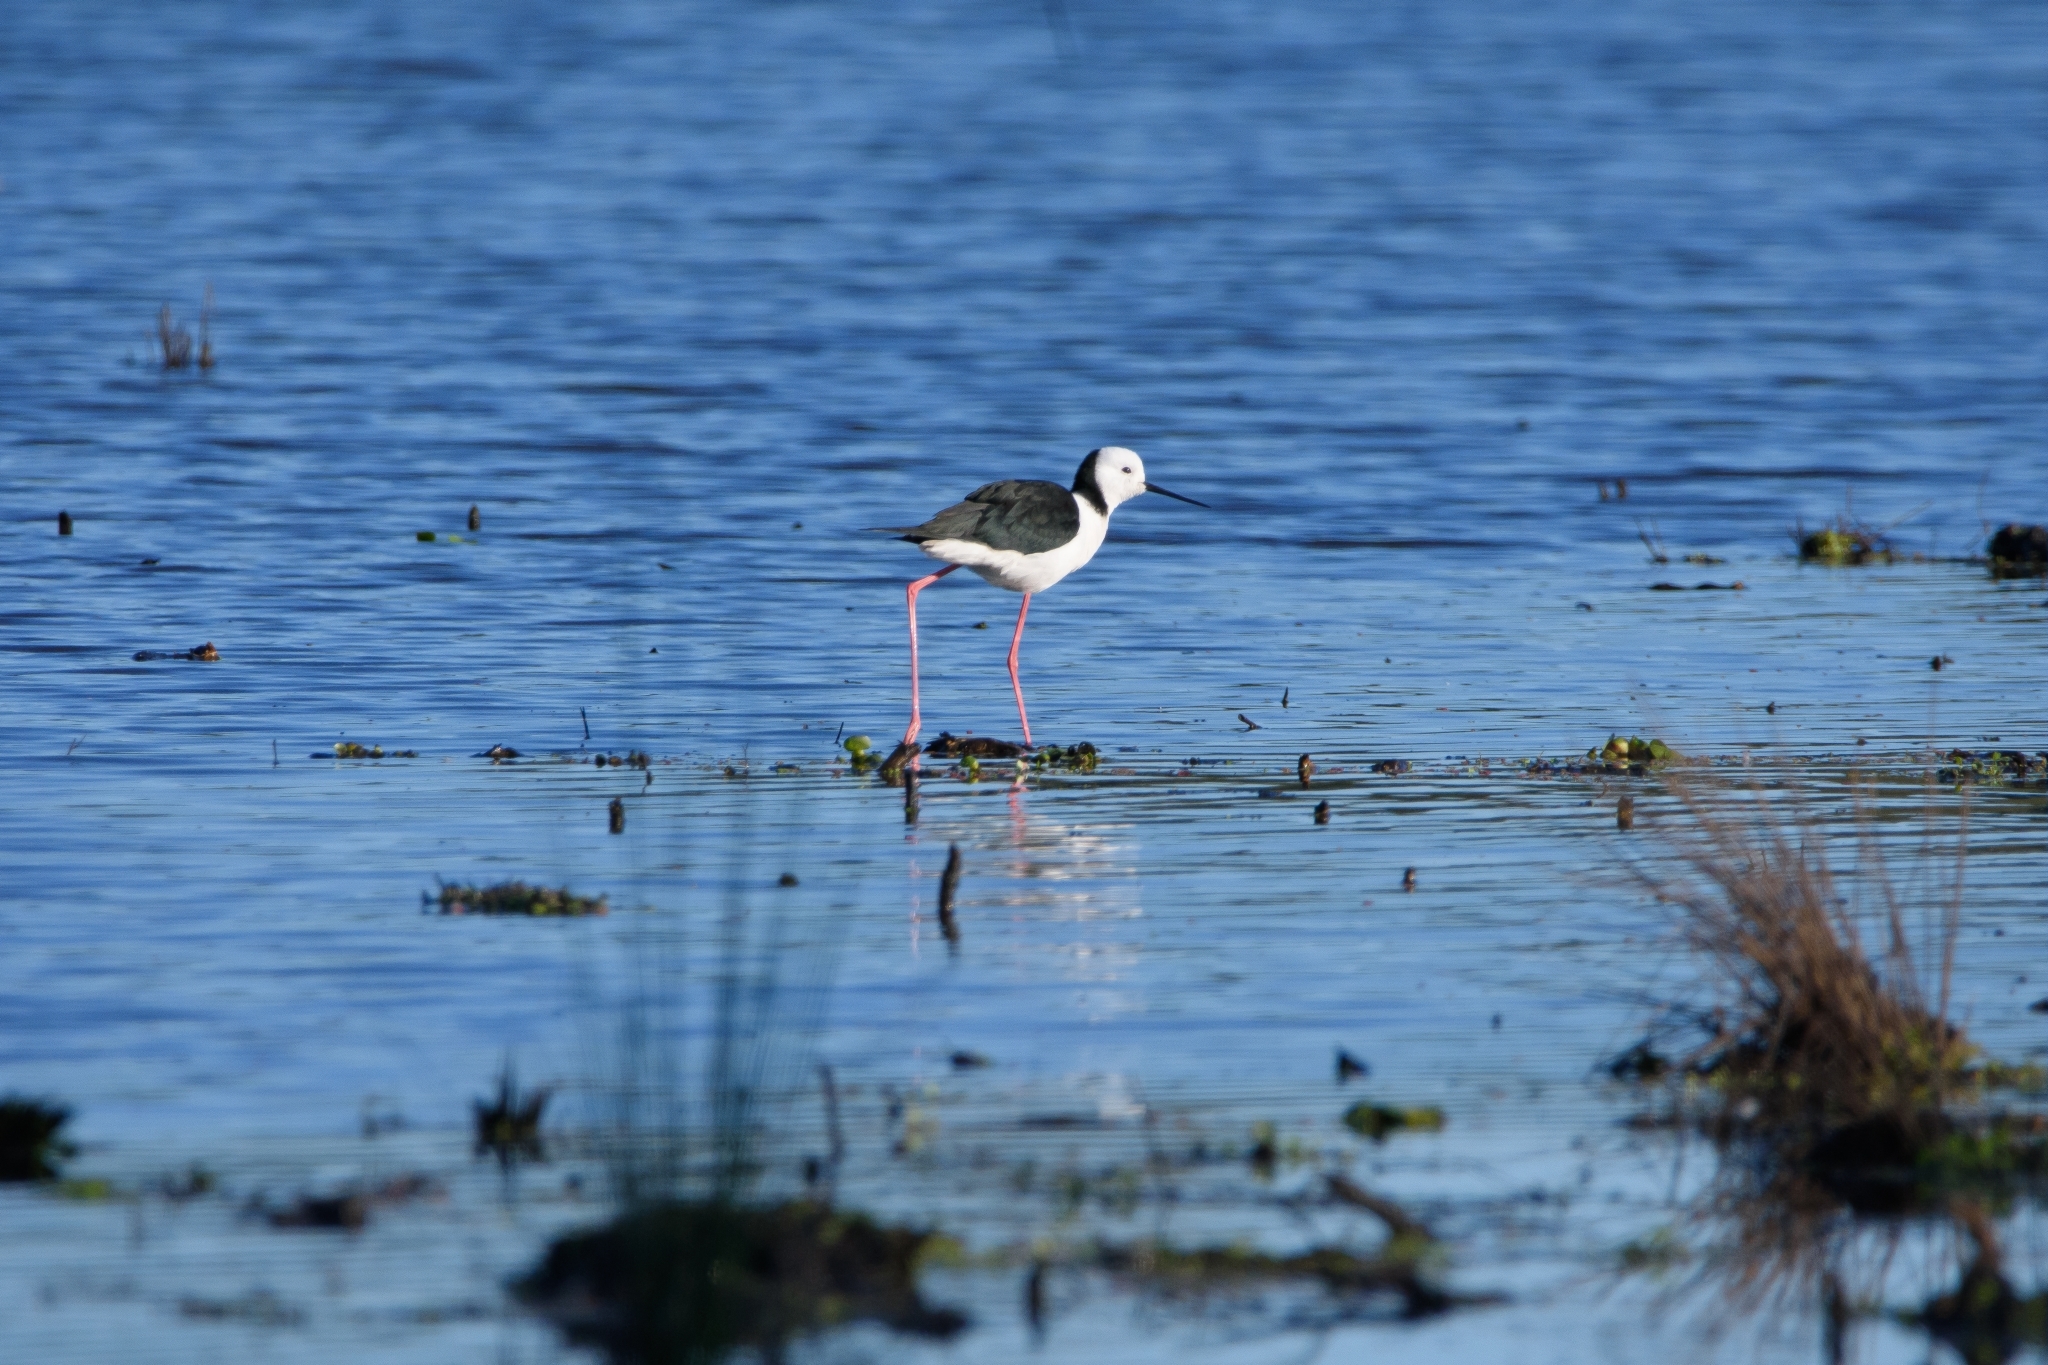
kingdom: Animalia
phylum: Chordata
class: Aves
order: Charadriiformes
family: Recurvirostridae
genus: Himantopus
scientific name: Himantopus leucocephalus
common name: White-headed stilt
